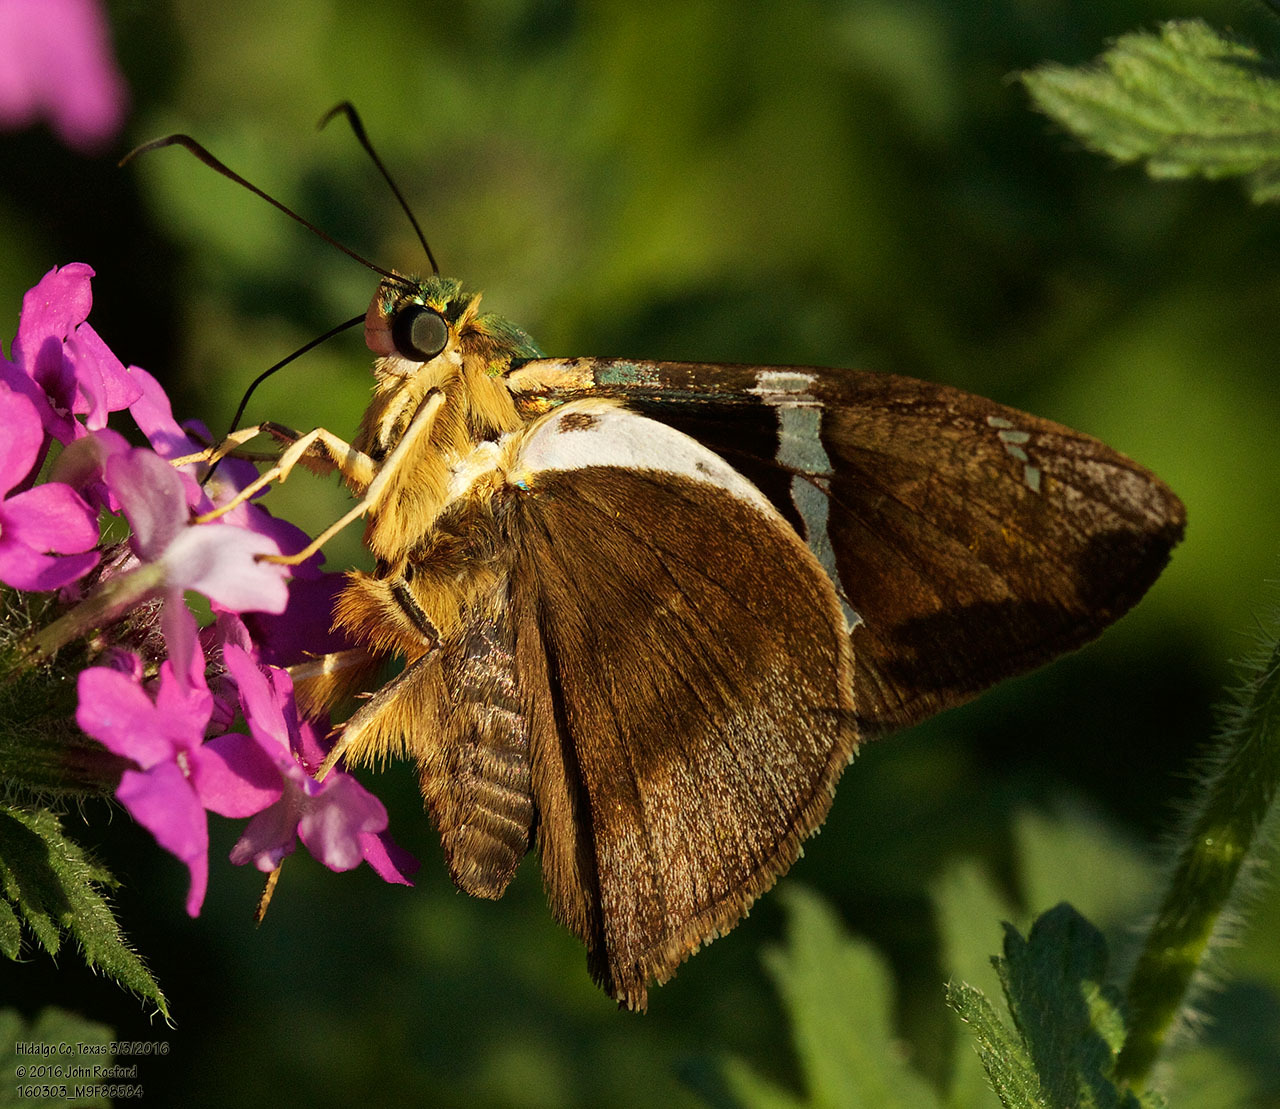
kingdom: Animalia
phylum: Arthropoda
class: Insecta
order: Lepidoptera
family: Hesperiidae
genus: Astraptes
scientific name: Astraptes fulgerator
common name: Two-barred flasher
